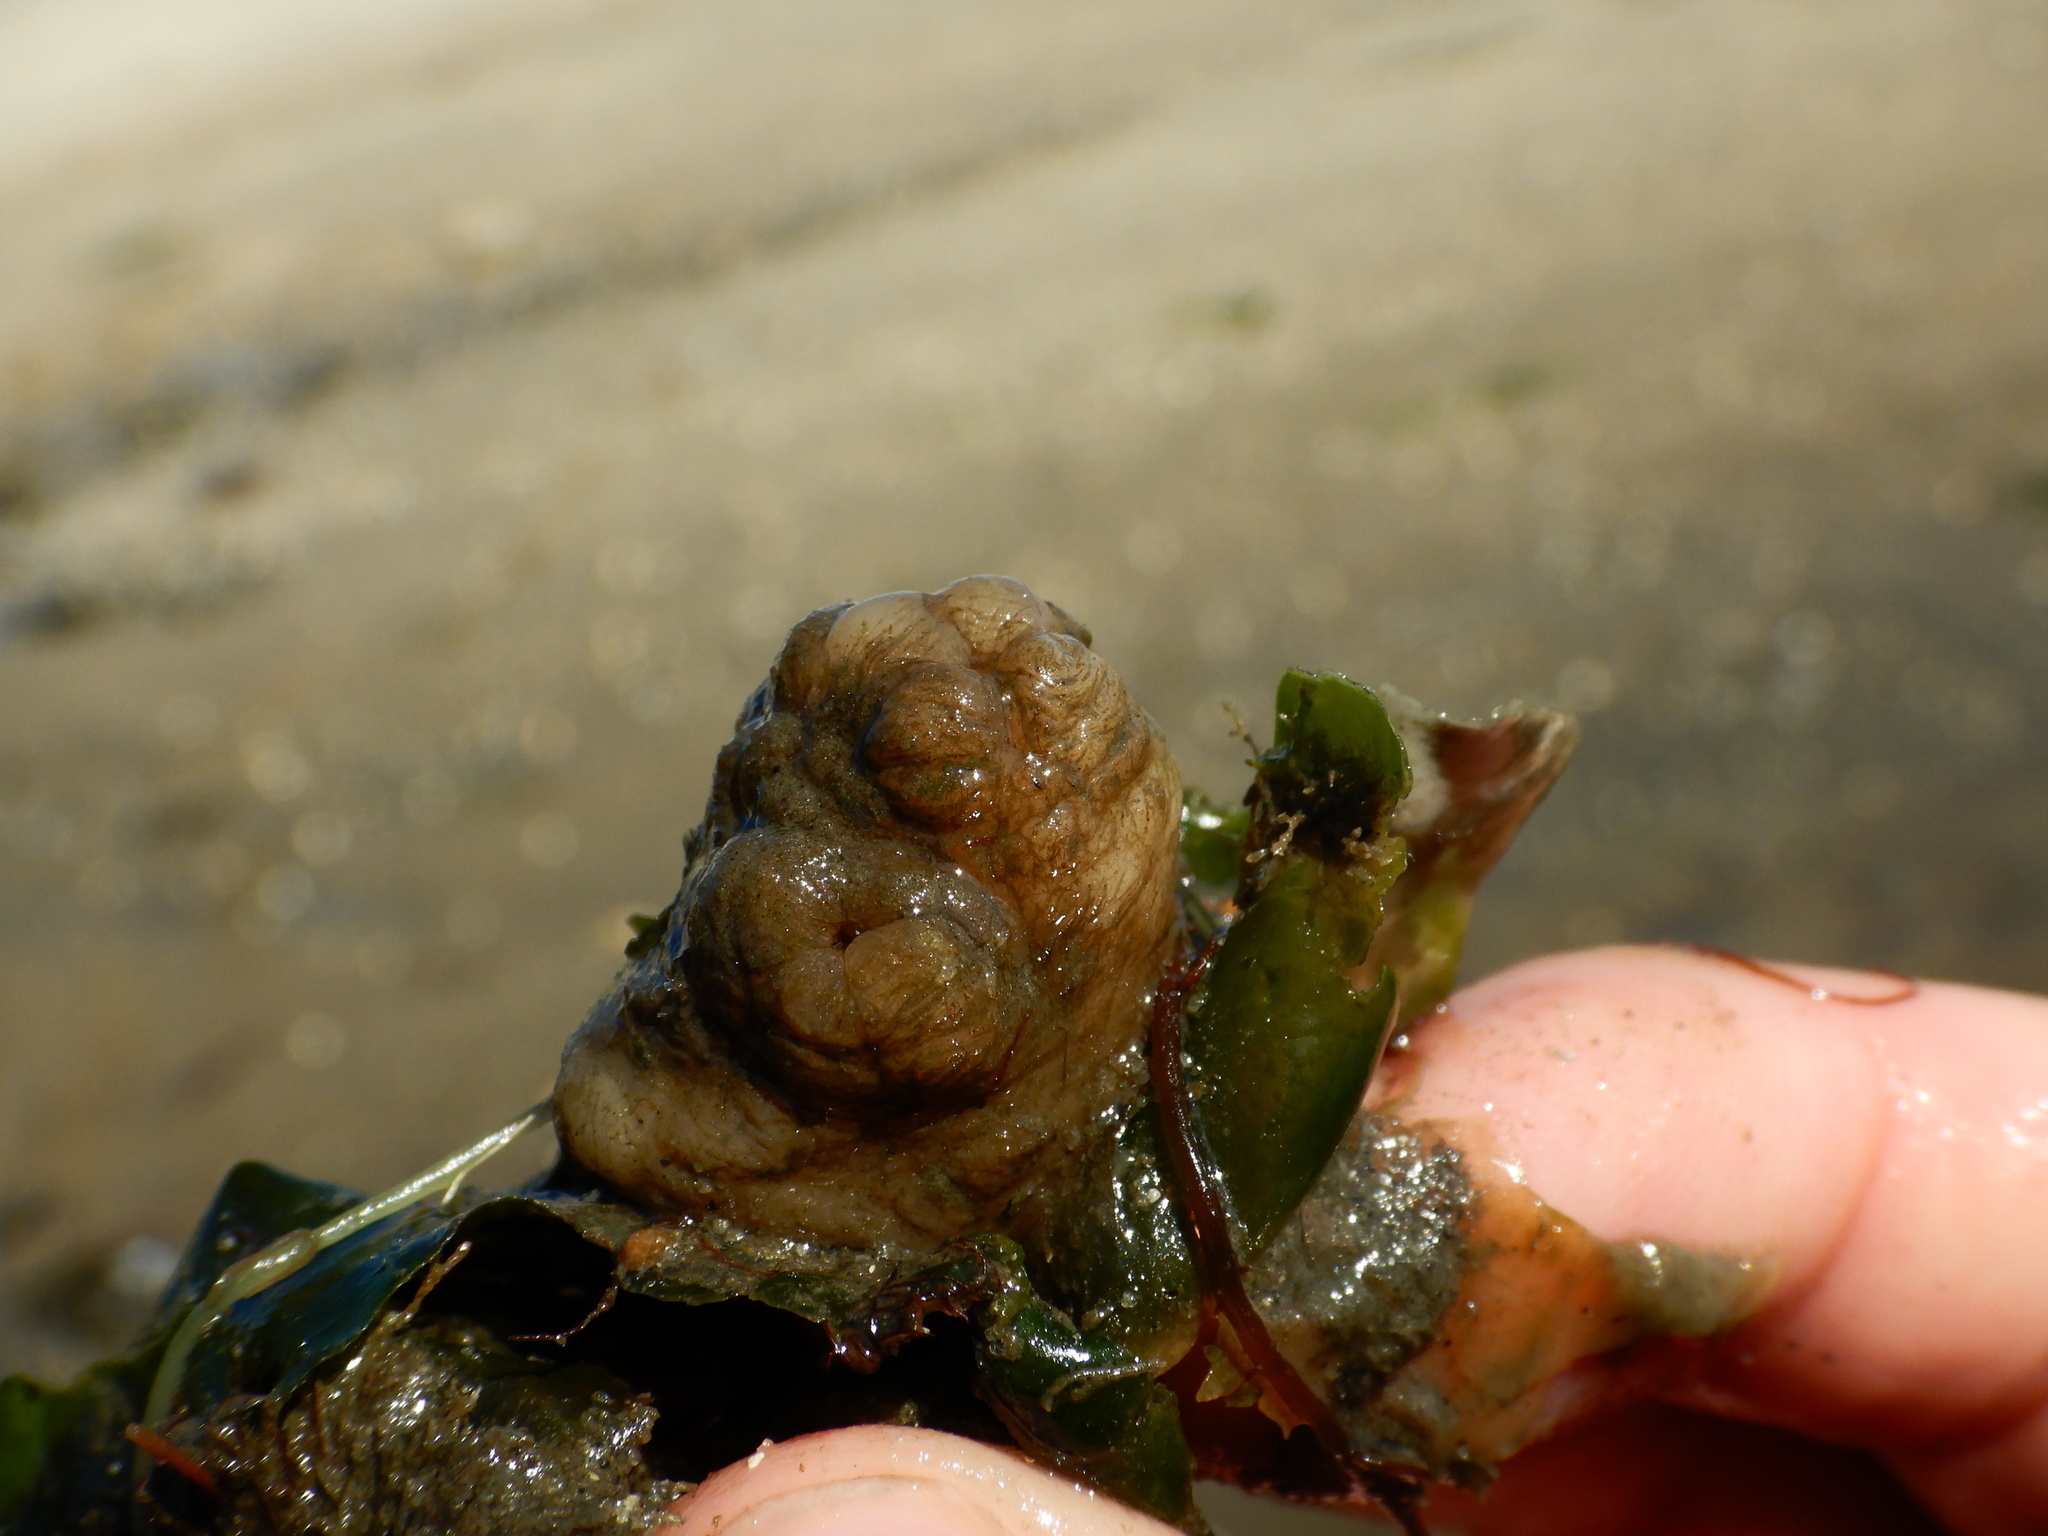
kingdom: Animalia
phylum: Chordata
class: Ascidiacea
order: Stolidobranchia
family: Styelidae
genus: Styela
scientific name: Styela plicata
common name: Pleated tunicate
